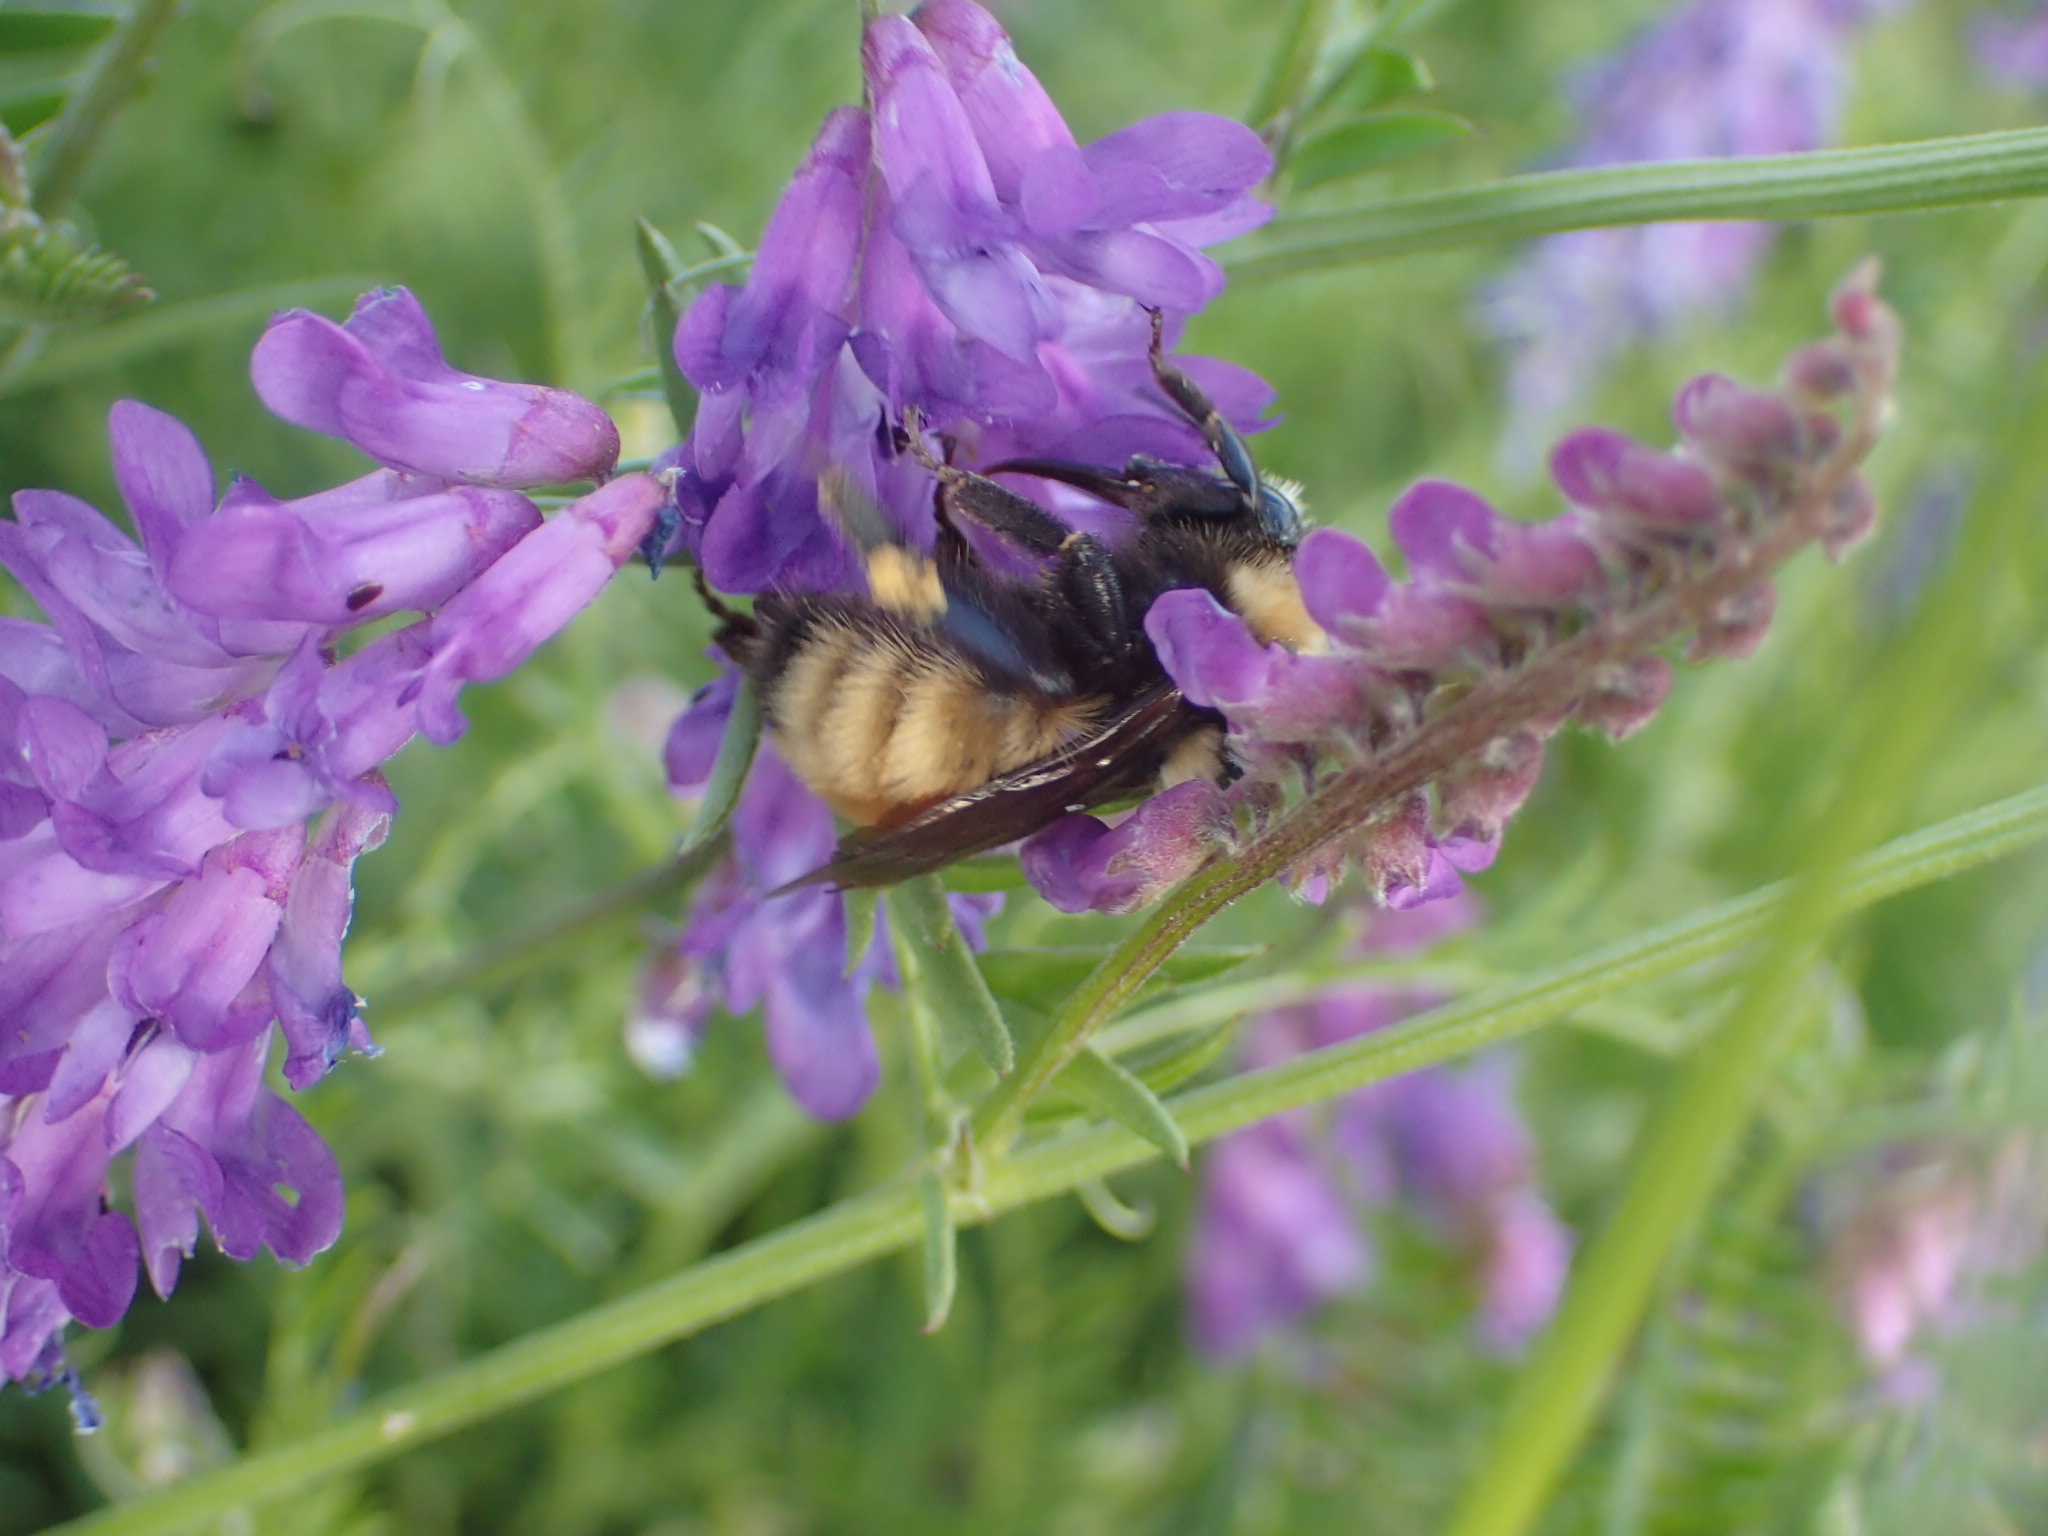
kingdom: Animalia
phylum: Arthropoda
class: Insecta
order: Hymenoptera
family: Apidae
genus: Bombus
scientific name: Bombus borealis
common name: Northern amber bumble bee
